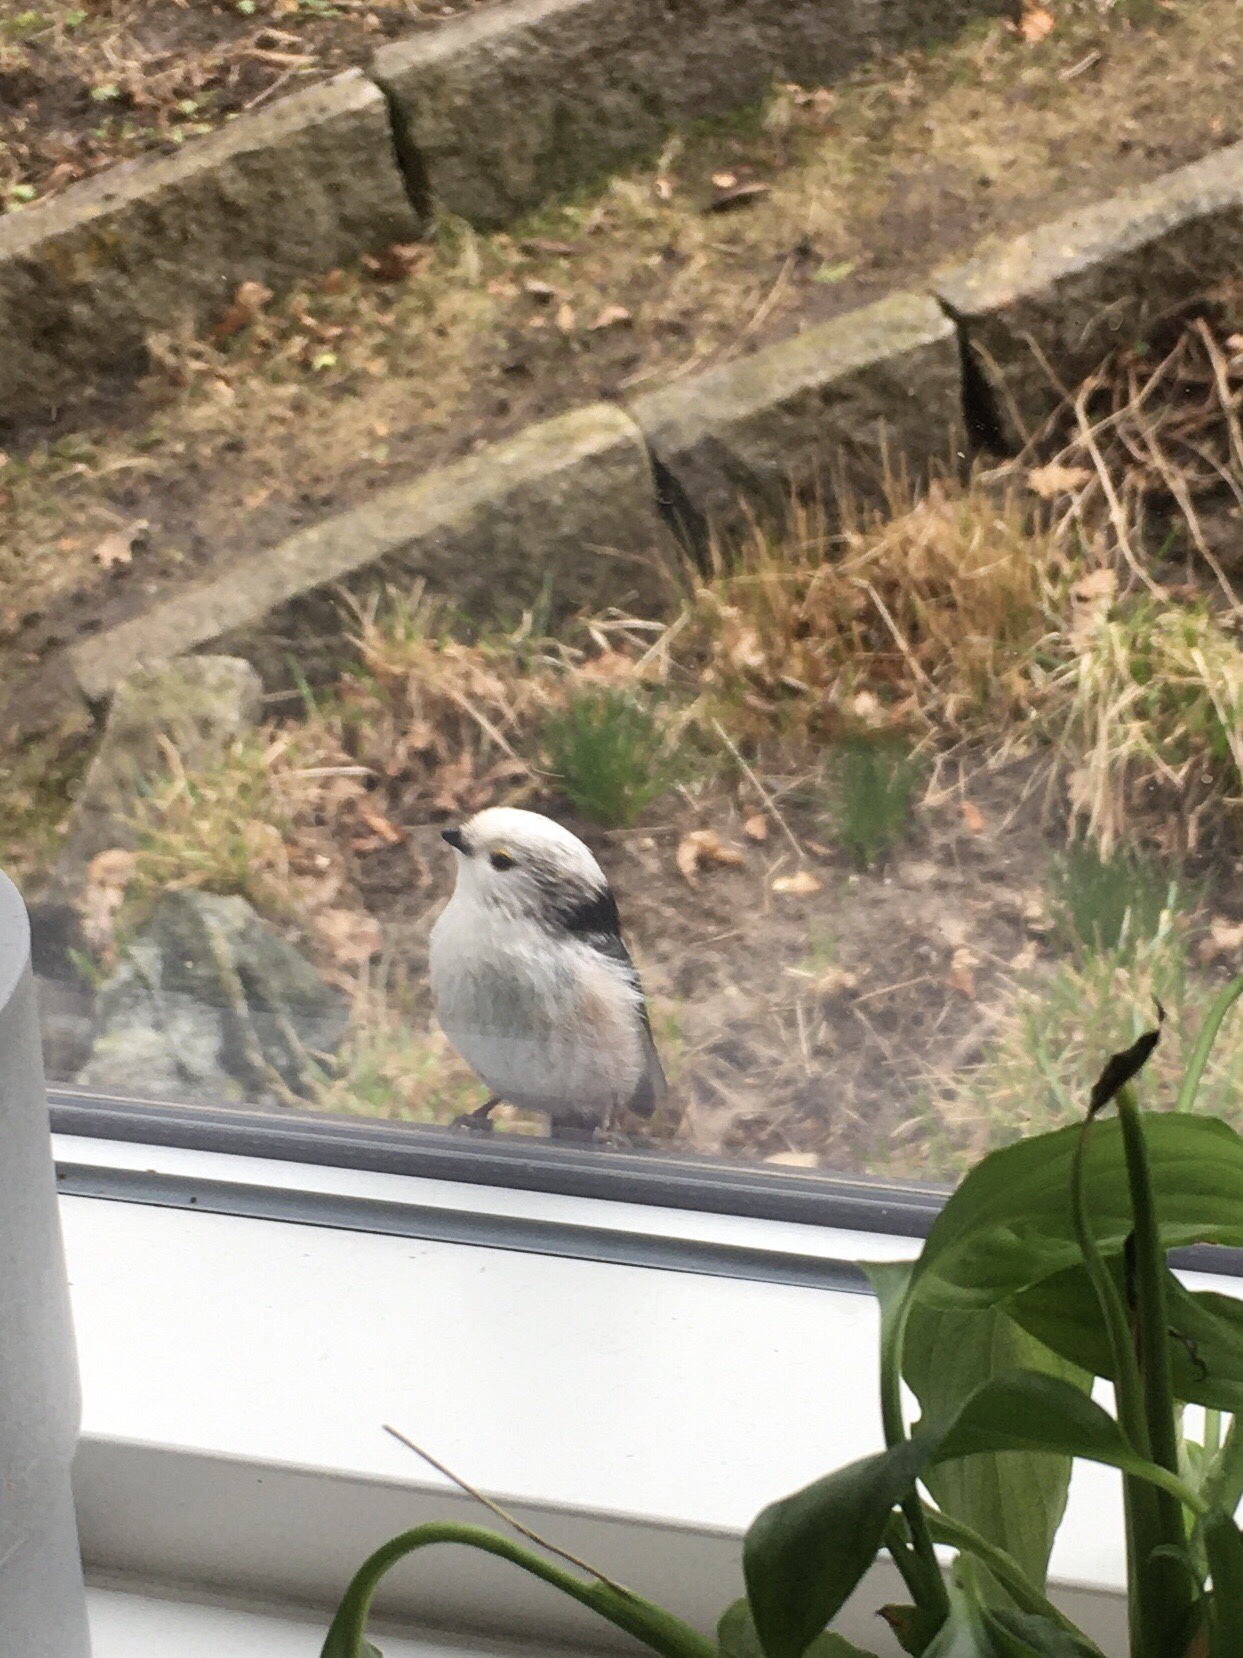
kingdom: Animalia
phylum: Chordata
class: Aves
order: Passeriformes
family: Aegithalidae
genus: Aegithalos
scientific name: Aegithalos caudatus
